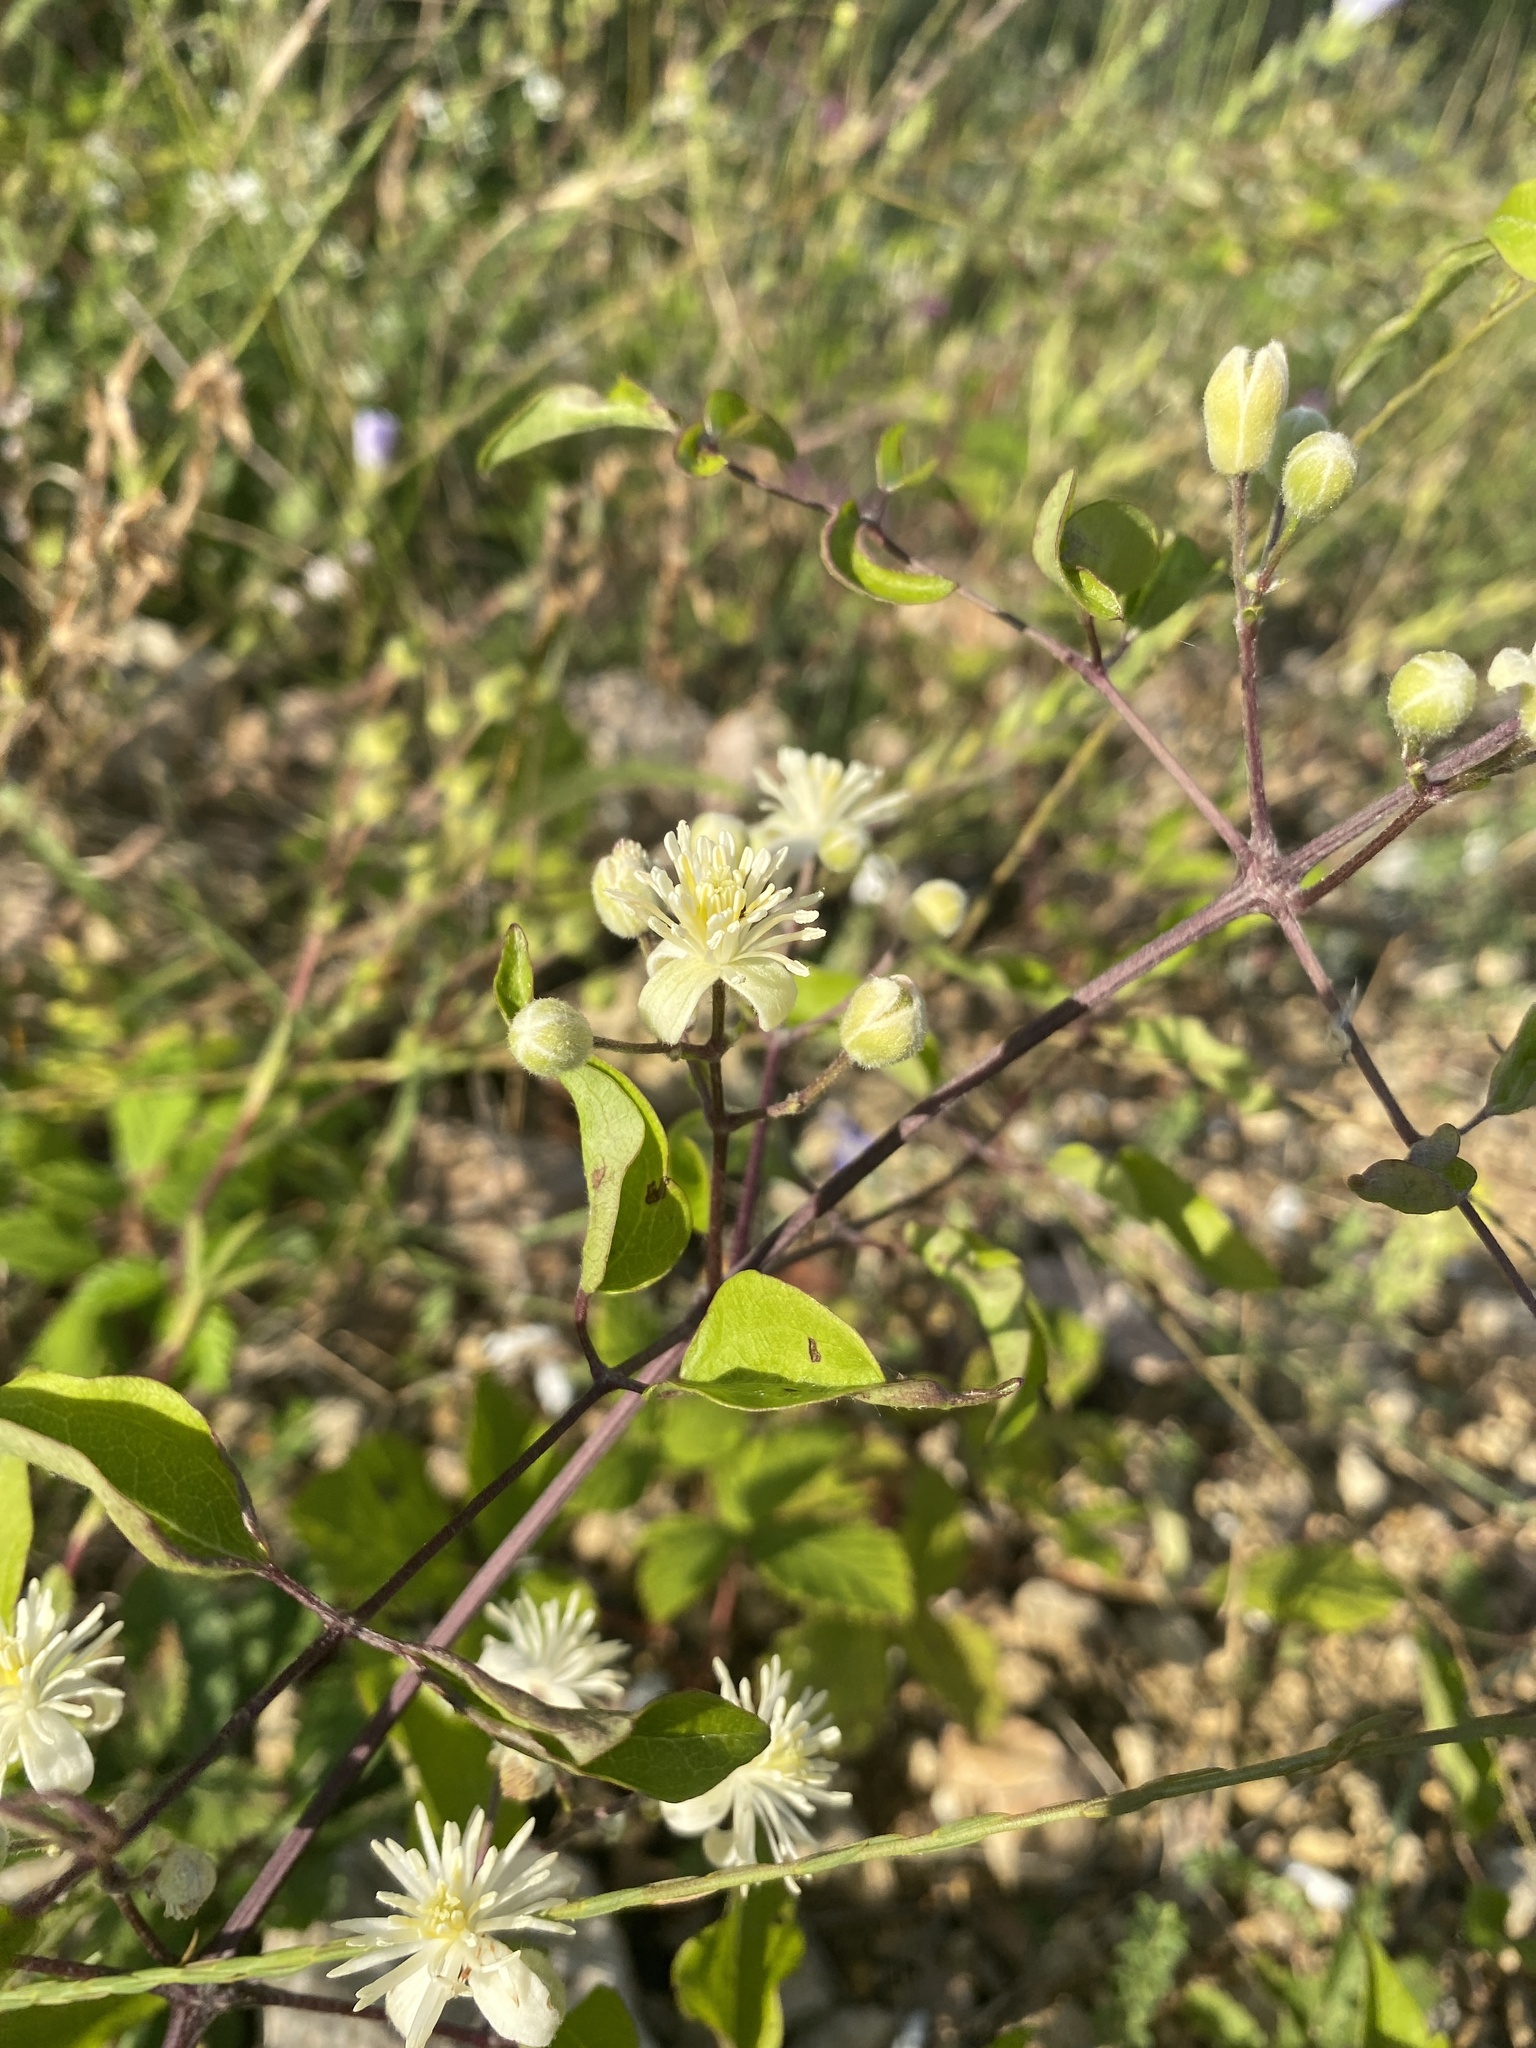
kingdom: Plantae
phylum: Tracheophyta
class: Magnoliopsida
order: Ranunculales
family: Ranunculaceae
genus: Clematis
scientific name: Clematis vitalba
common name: Evergreen clematis
